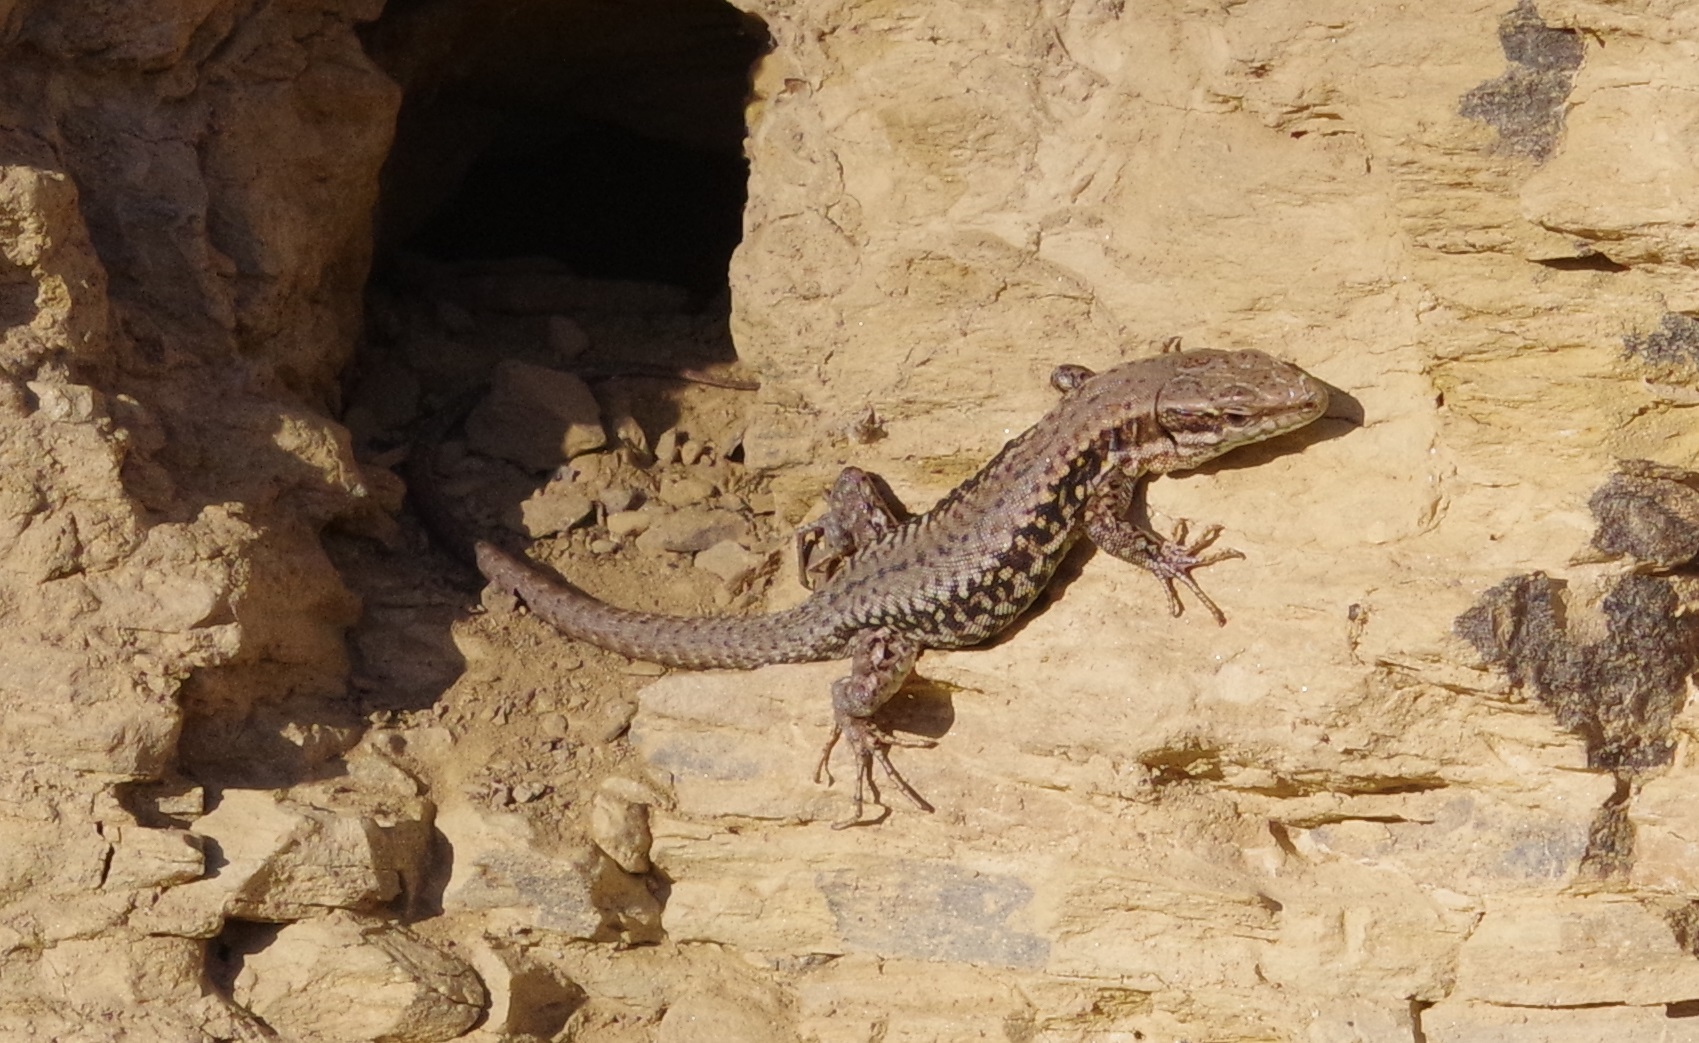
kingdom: Animalia
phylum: Chordata
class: Squamata
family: Lacertidae
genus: Podarcis
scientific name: Podarcis muralis
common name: Common wall lizard
